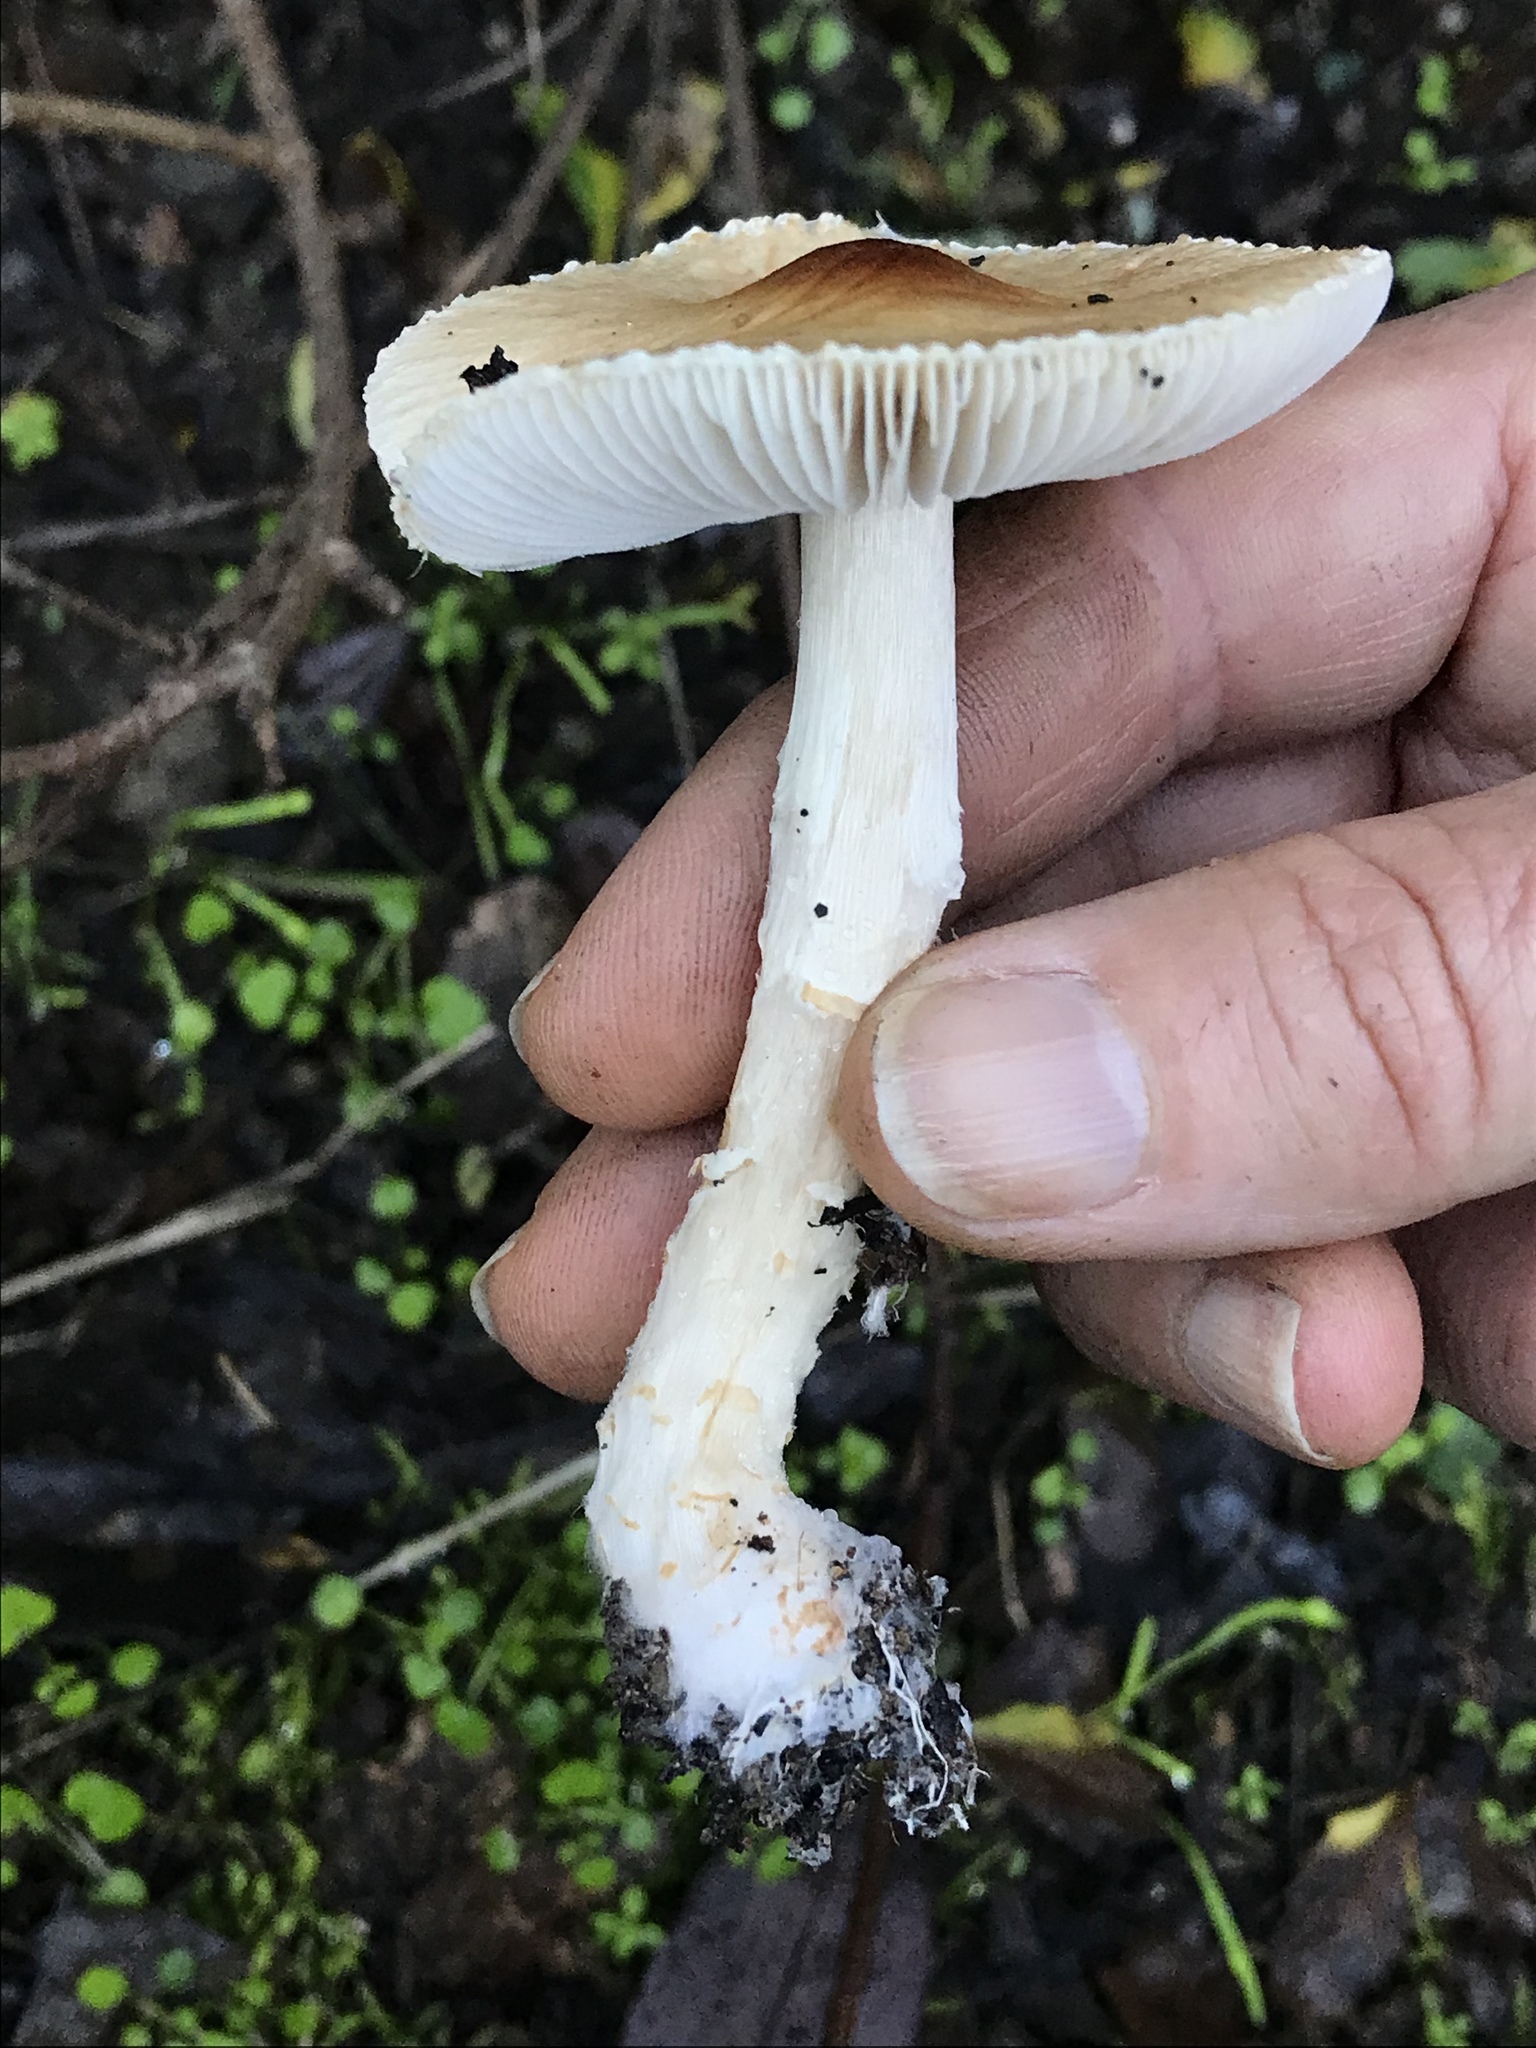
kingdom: Fungi
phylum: Basidiomycota
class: Agaricomycetes
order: Agaricales
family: Agaricaceae
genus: Lepiota
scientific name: Lepiota rubrotinctoides
